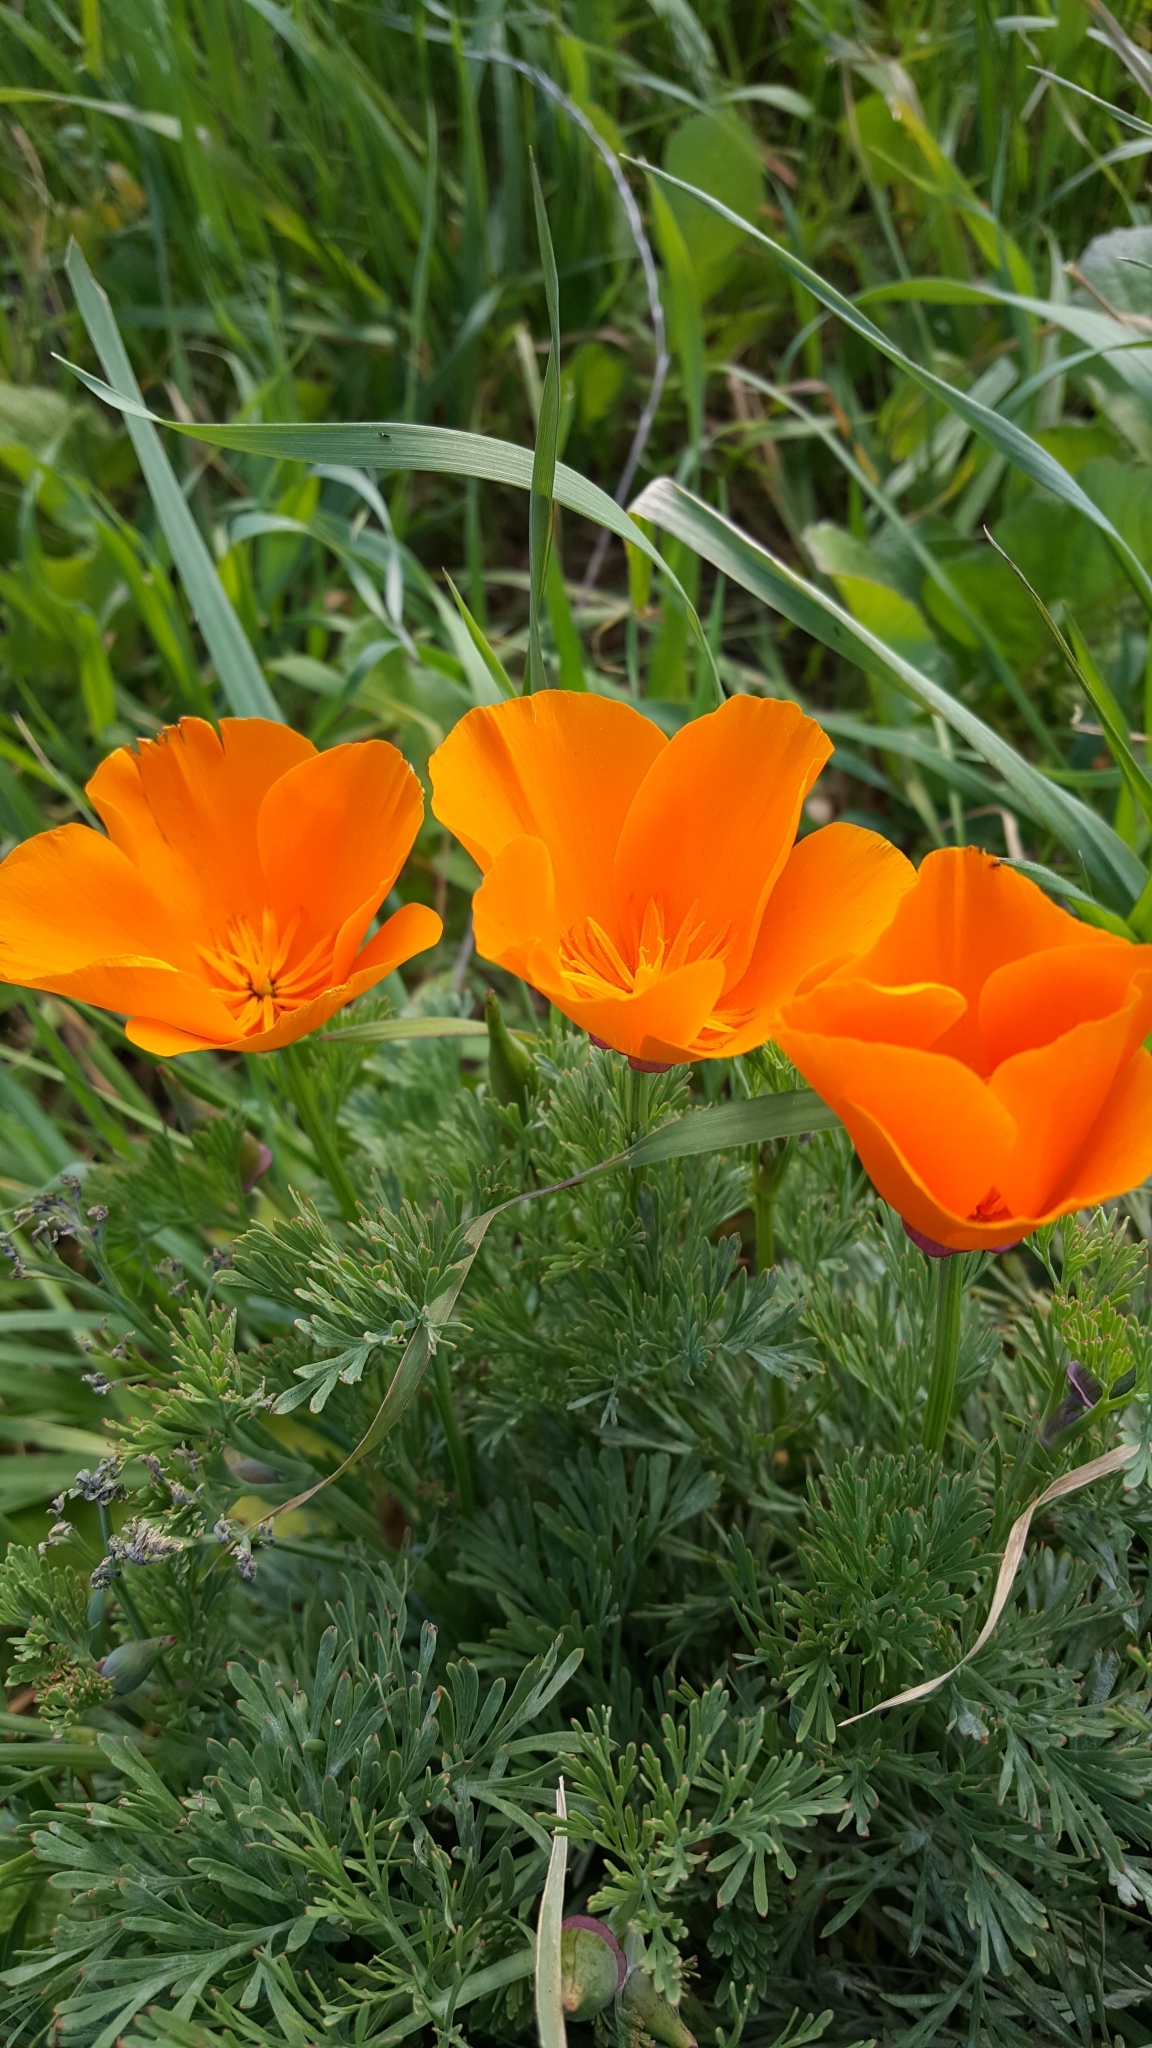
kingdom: Plantae
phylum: Tracheophyta
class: Magnoliopsida
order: Ranunculales
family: Papaveraceae
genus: Eschscholzia
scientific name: Eschscholzia californica
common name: California poppy
